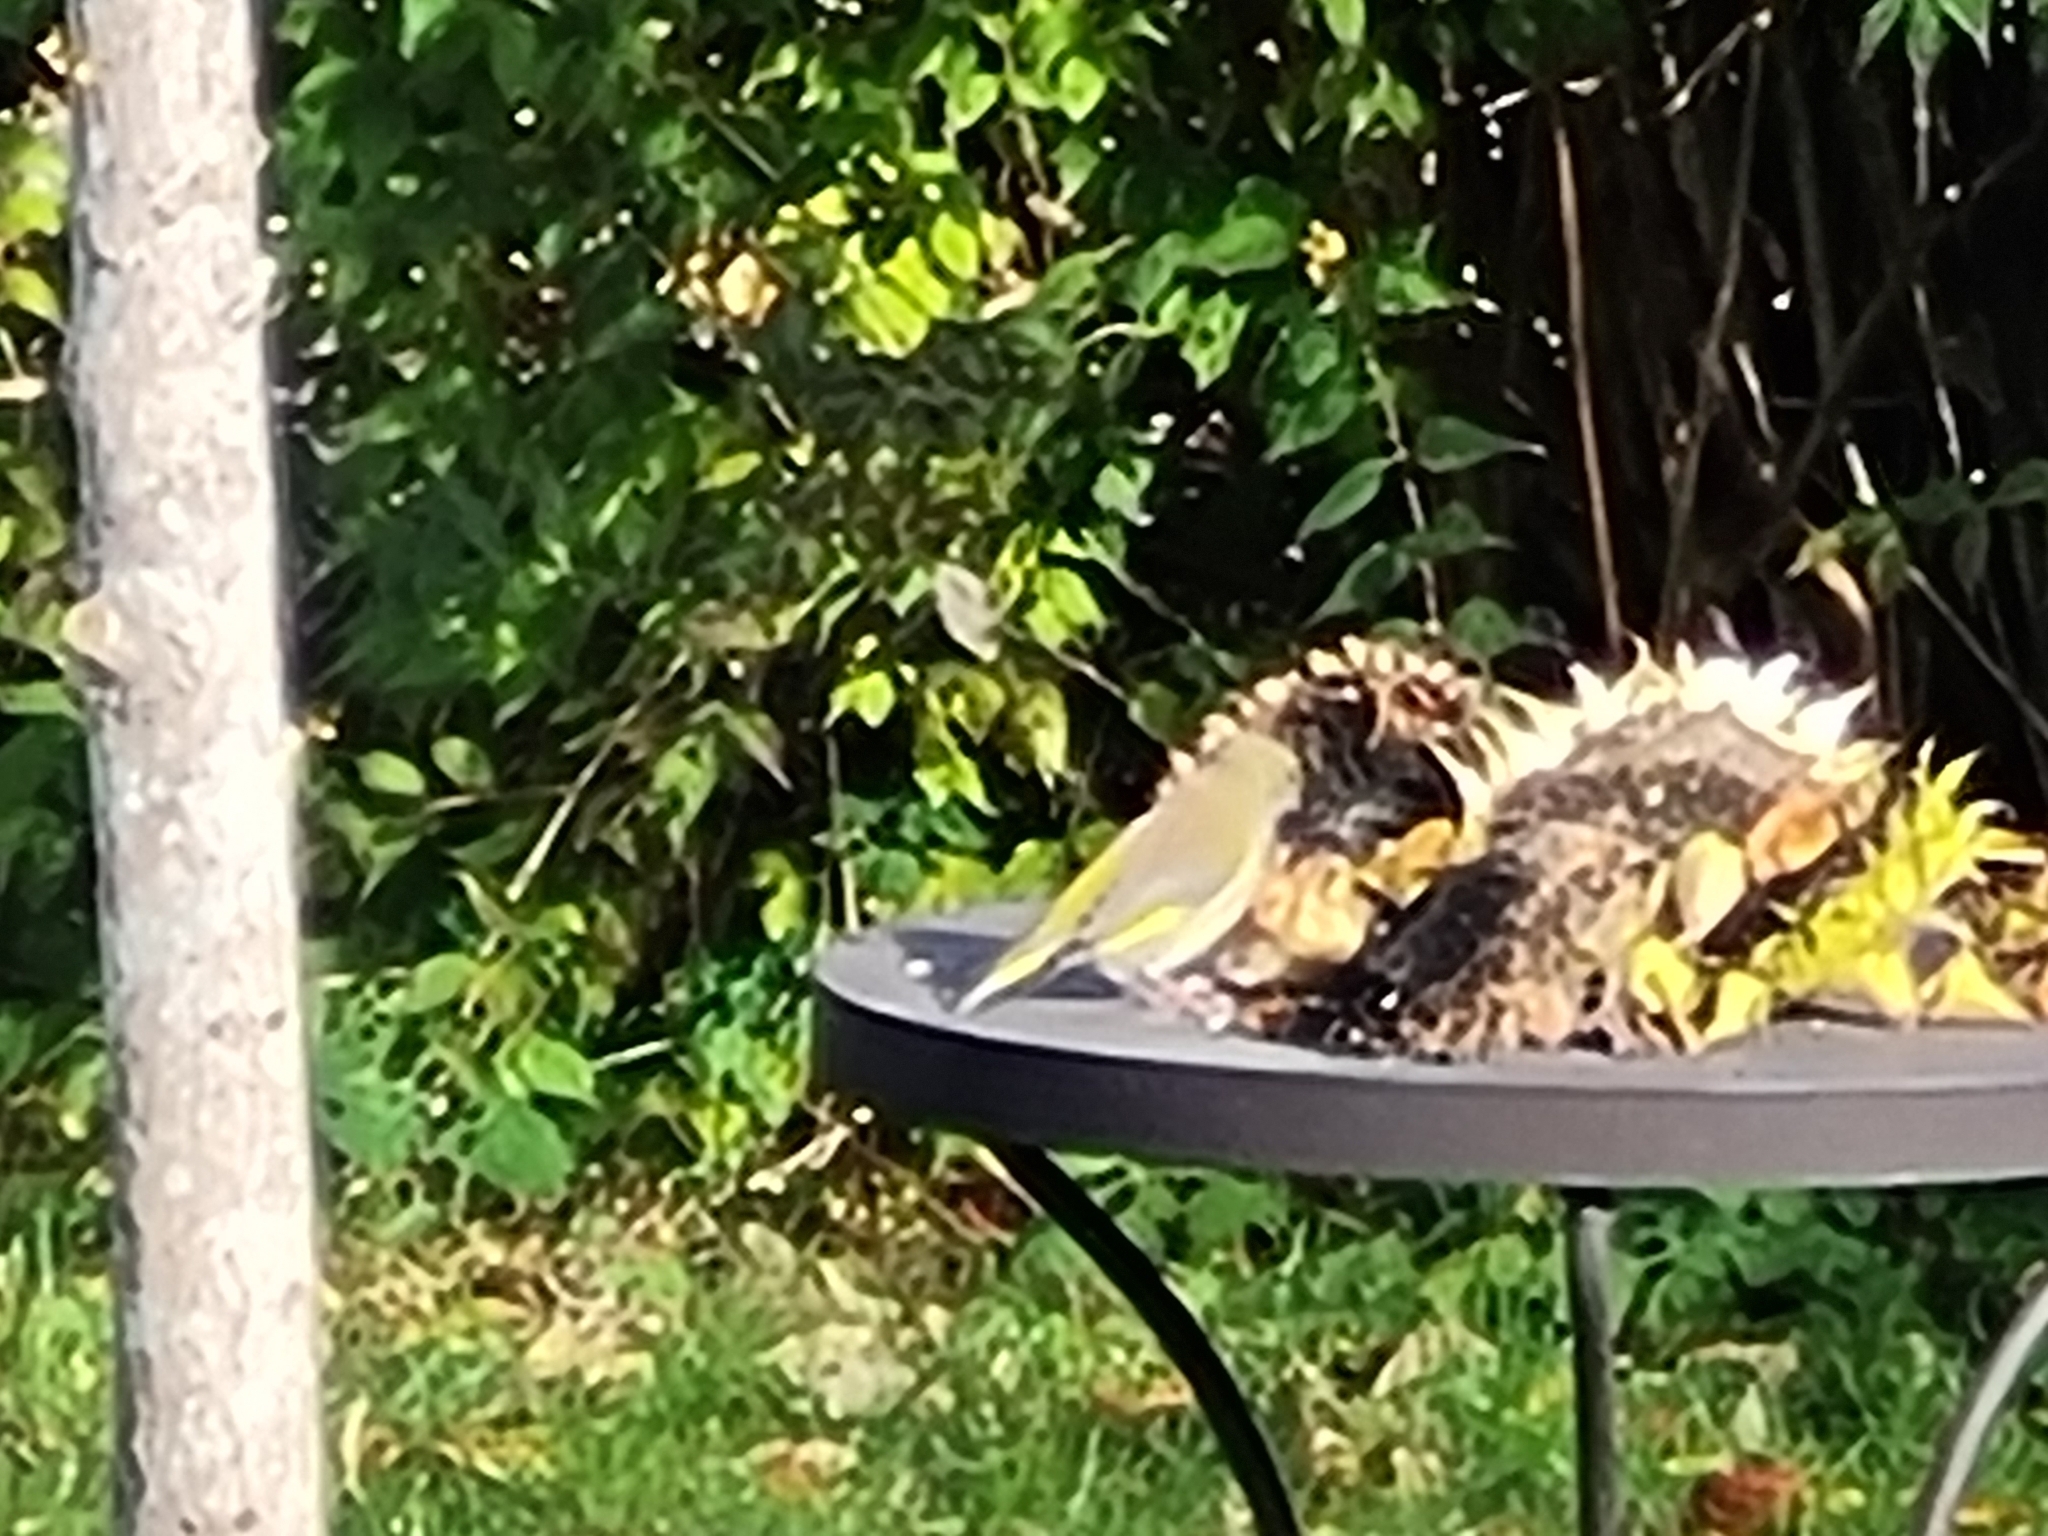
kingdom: Plantae
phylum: Tracheophyta
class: Liliopsida
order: Poales
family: Poaceae
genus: Chloris
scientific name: Chloris chloris
